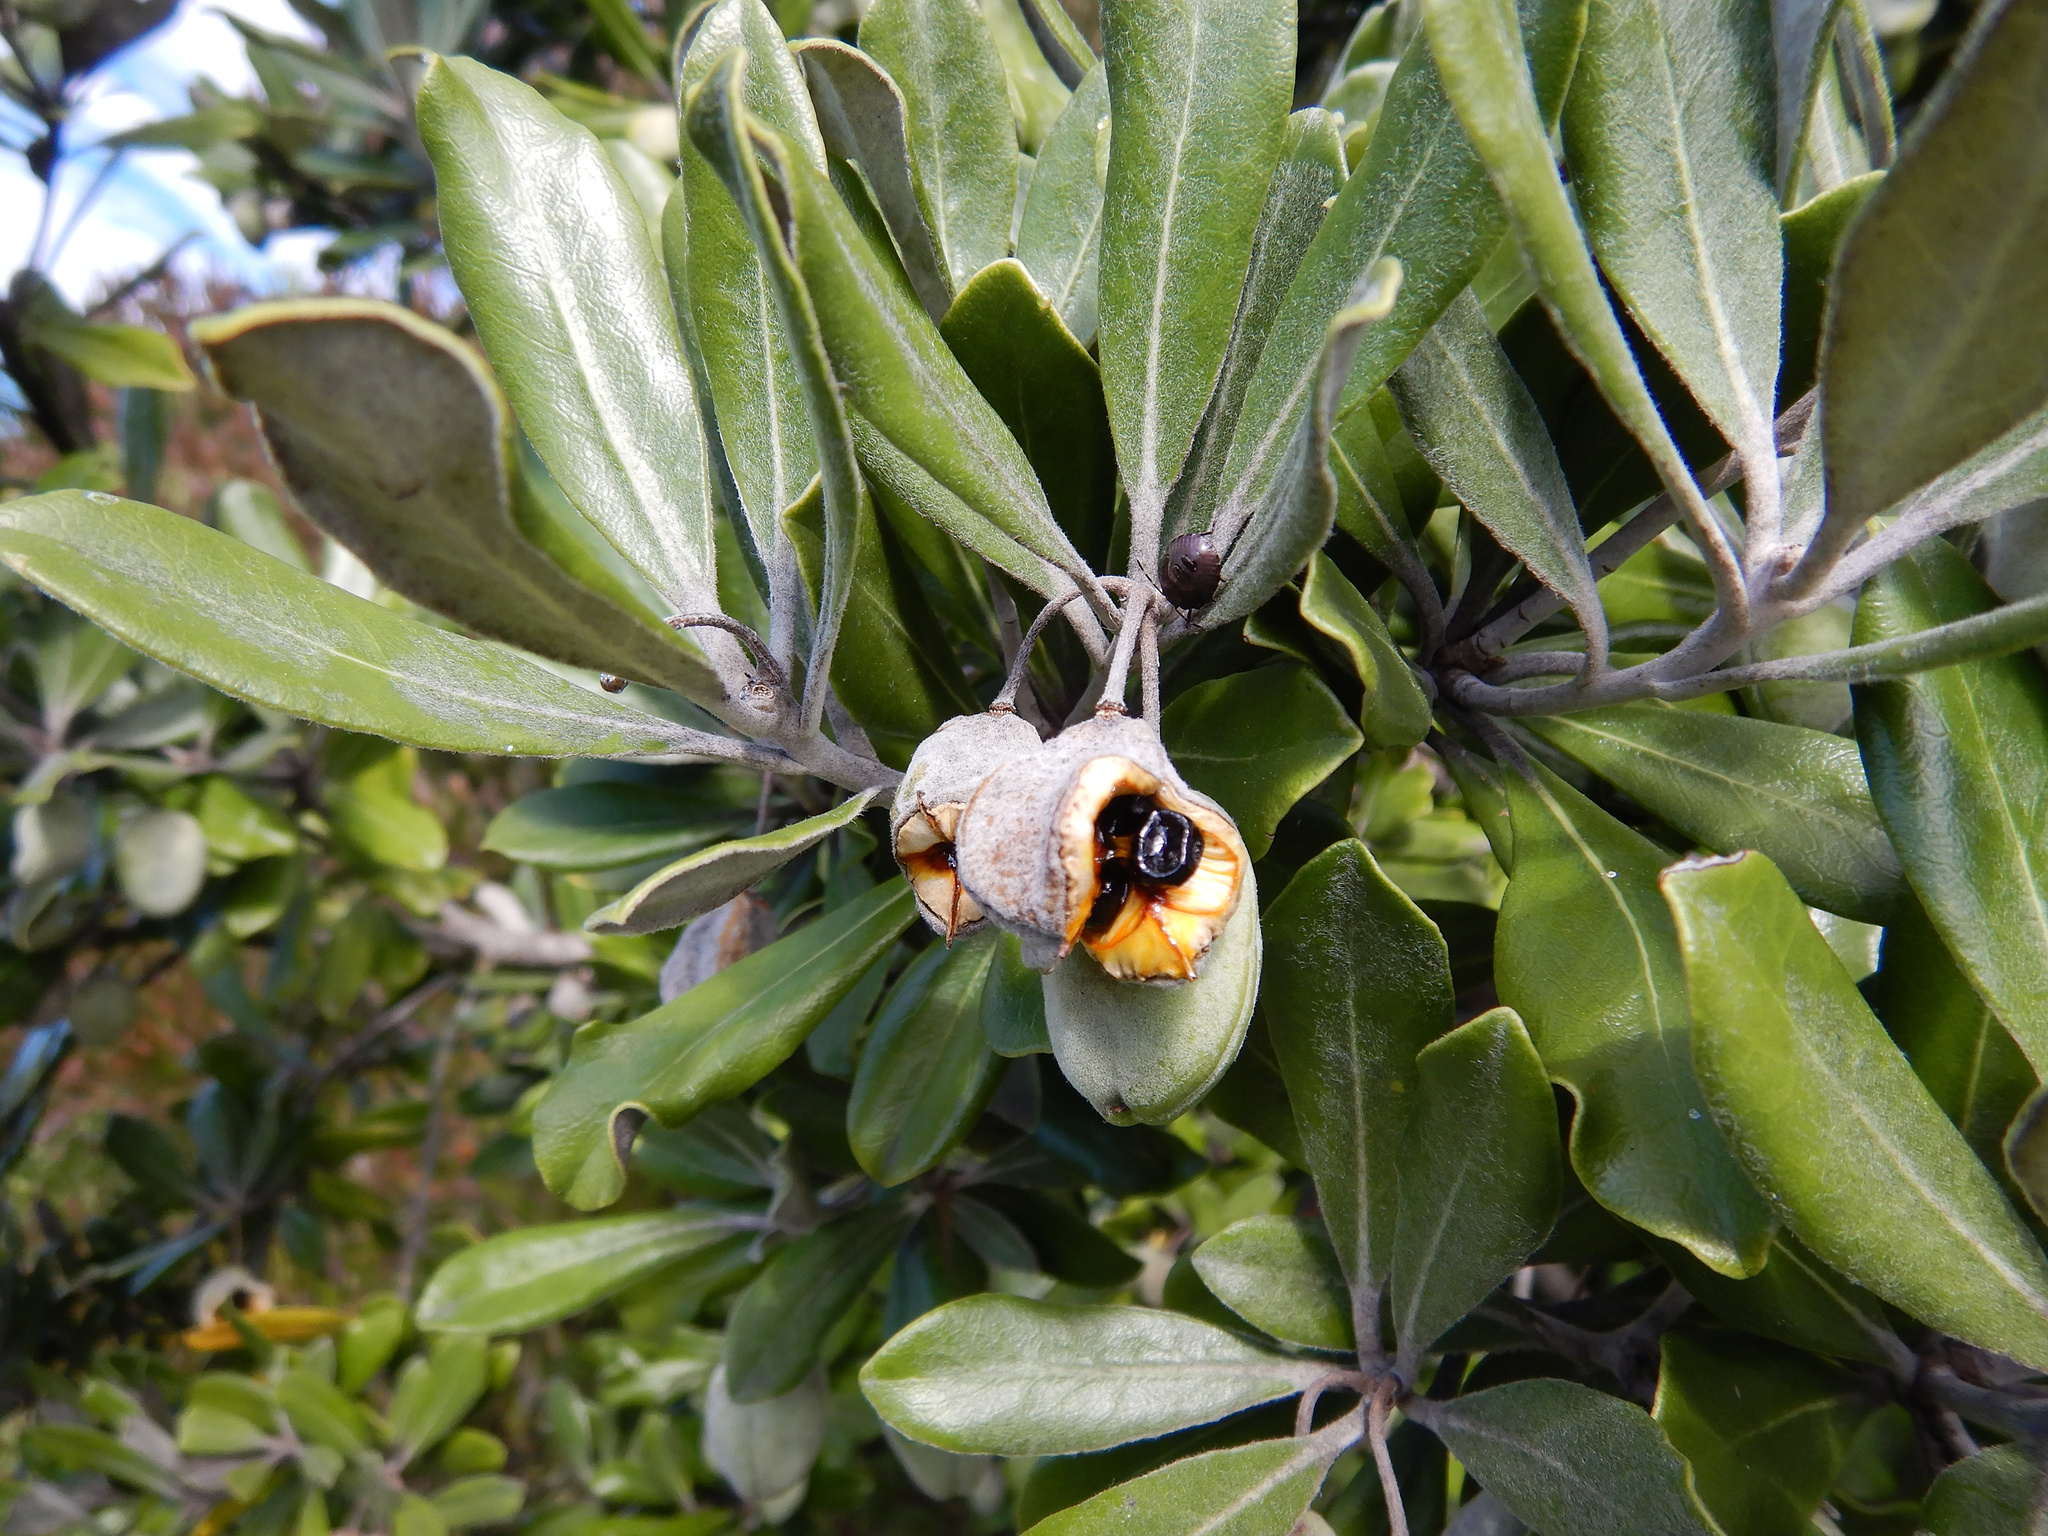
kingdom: Plantae
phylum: Tracheophyta
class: Magnoliopsida
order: Apiales
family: Pittosporaceae
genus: Pittosporum
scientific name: Pittosporum crassifolium
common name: Karo
